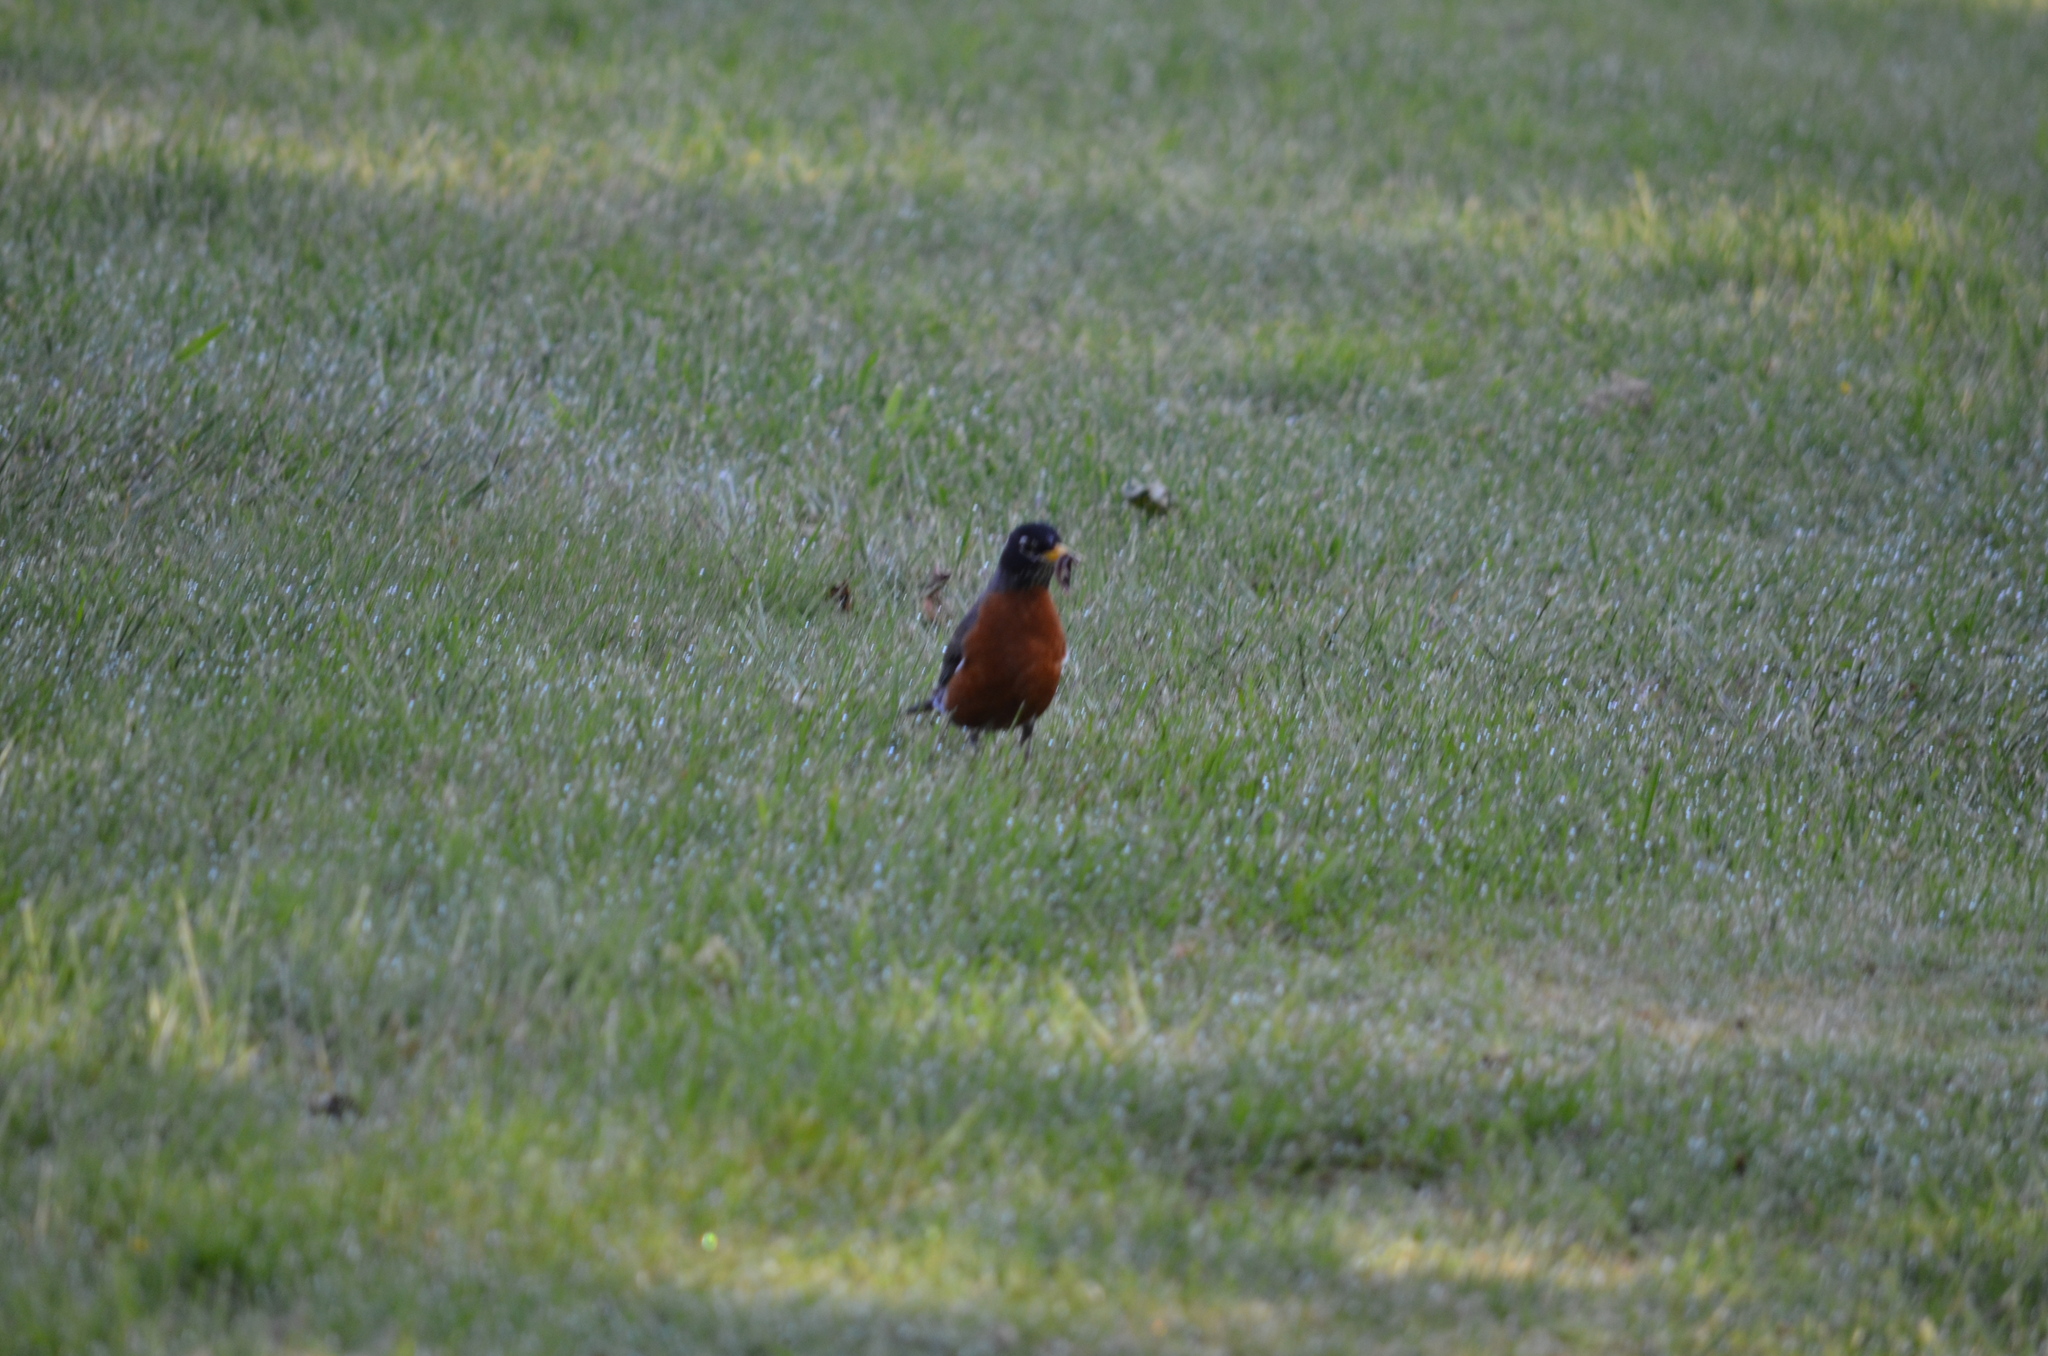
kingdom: Animalia
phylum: Chordata
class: Aves
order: Passeriformes
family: Turdidae
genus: Turdus
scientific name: Turdus migratorius
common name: American robin
